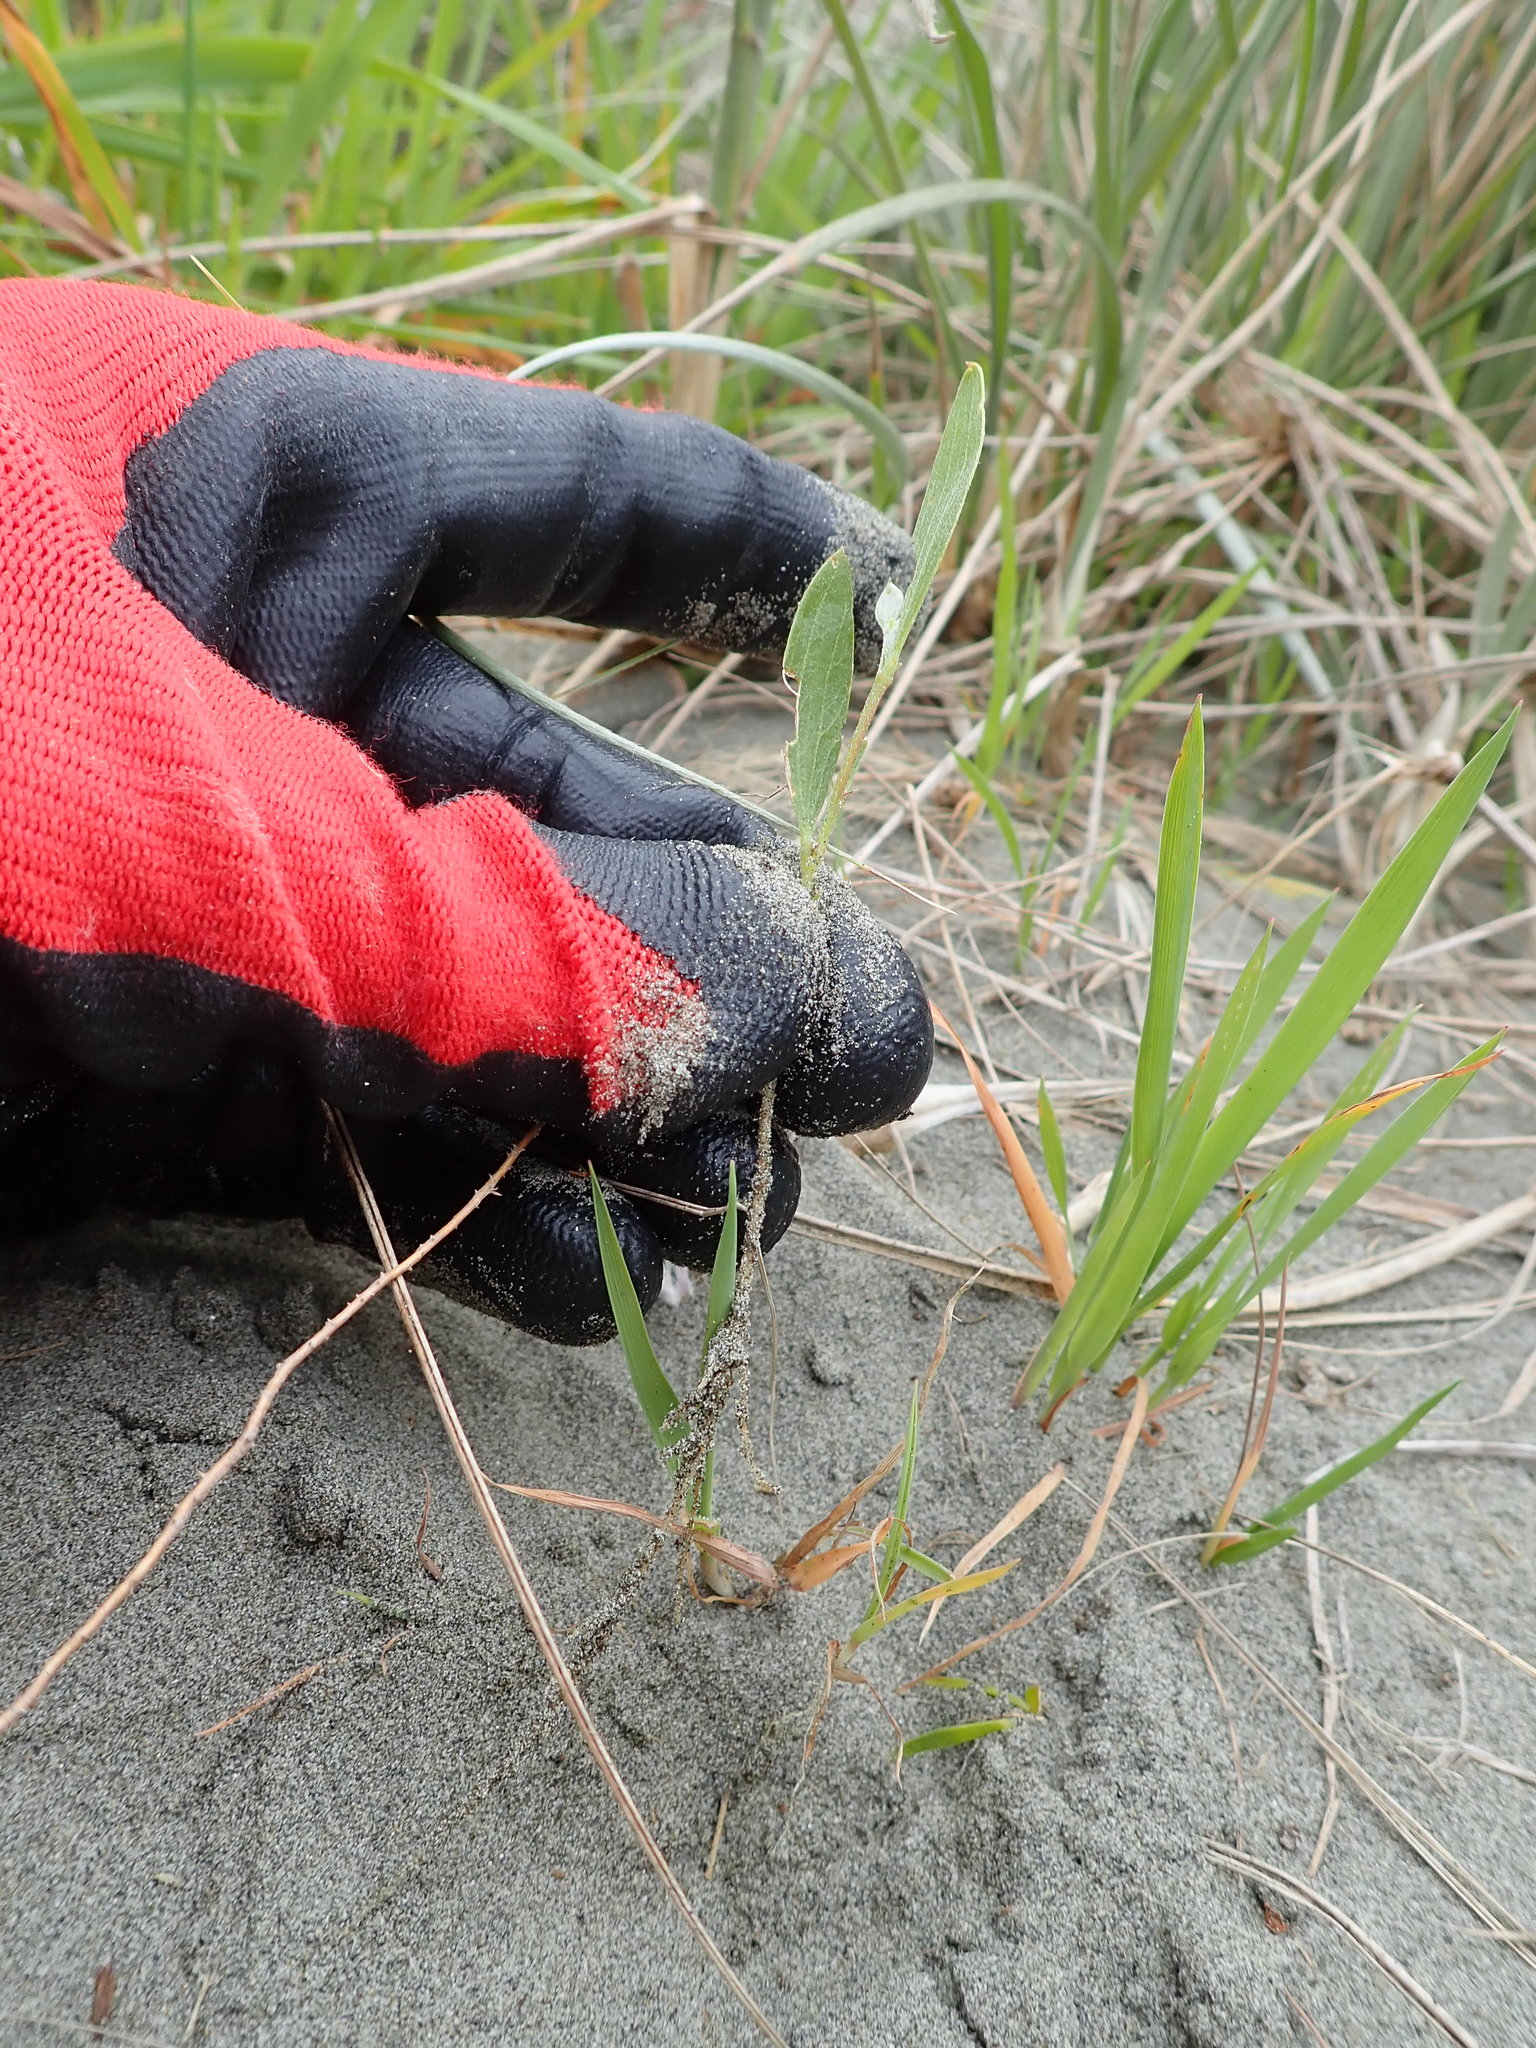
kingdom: Plantae
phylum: Tracheophyta
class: Magnoliopsida
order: Fabales
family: Fabaceae
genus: Acacia
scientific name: Acacia longifolia
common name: Sydney golden wattle
